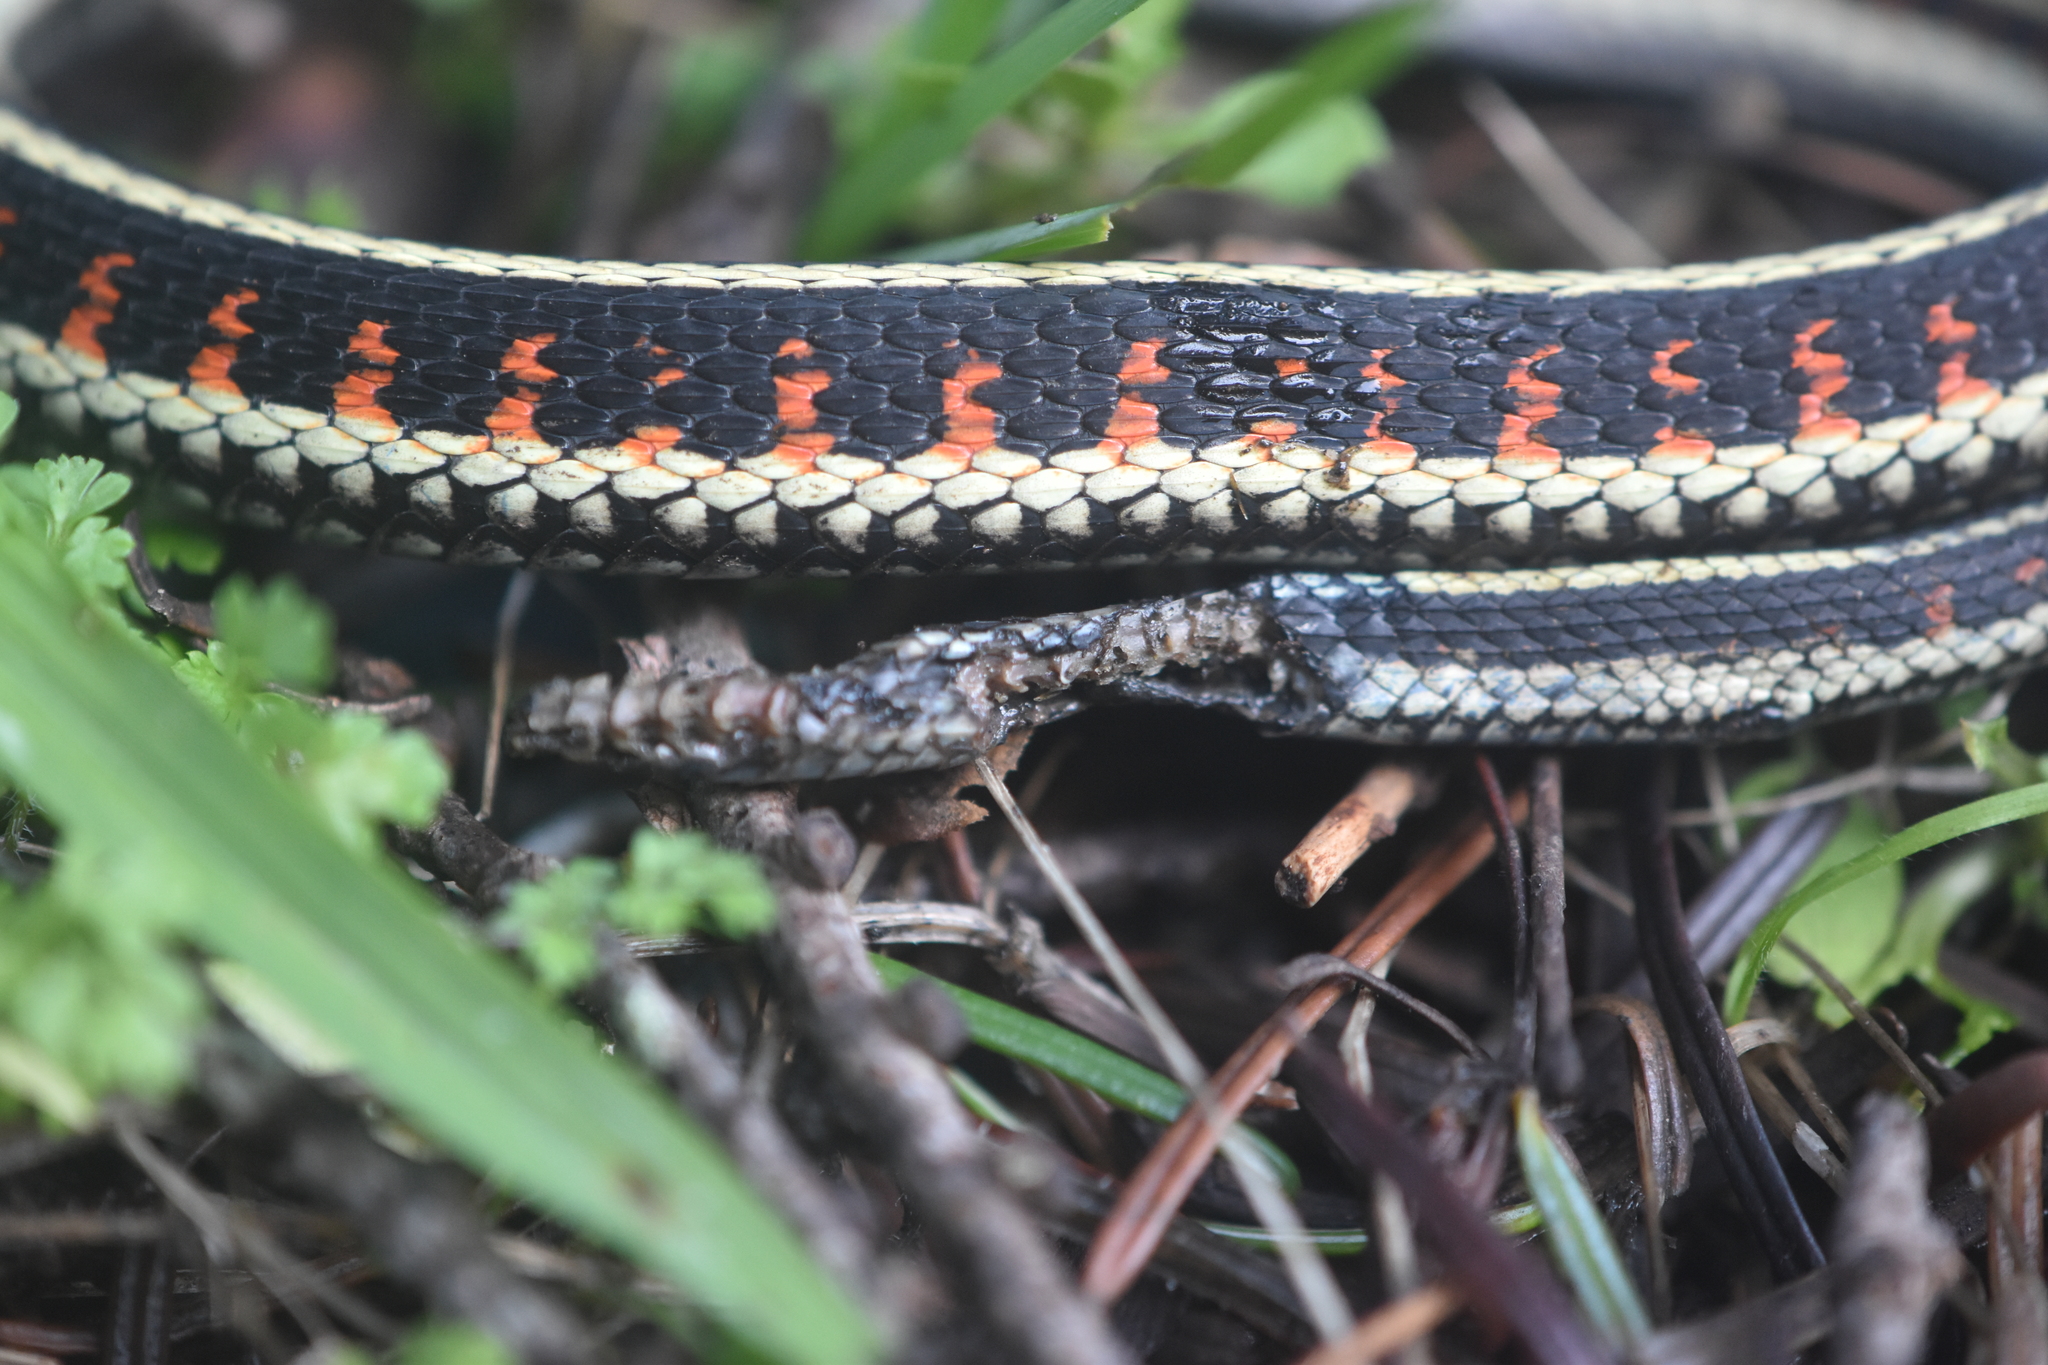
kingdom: Animalia
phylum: Chordata
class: Squamata
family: Colubridae
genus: Thamnophis
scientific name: Thamnophis sirtalis
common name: Common garter snake
